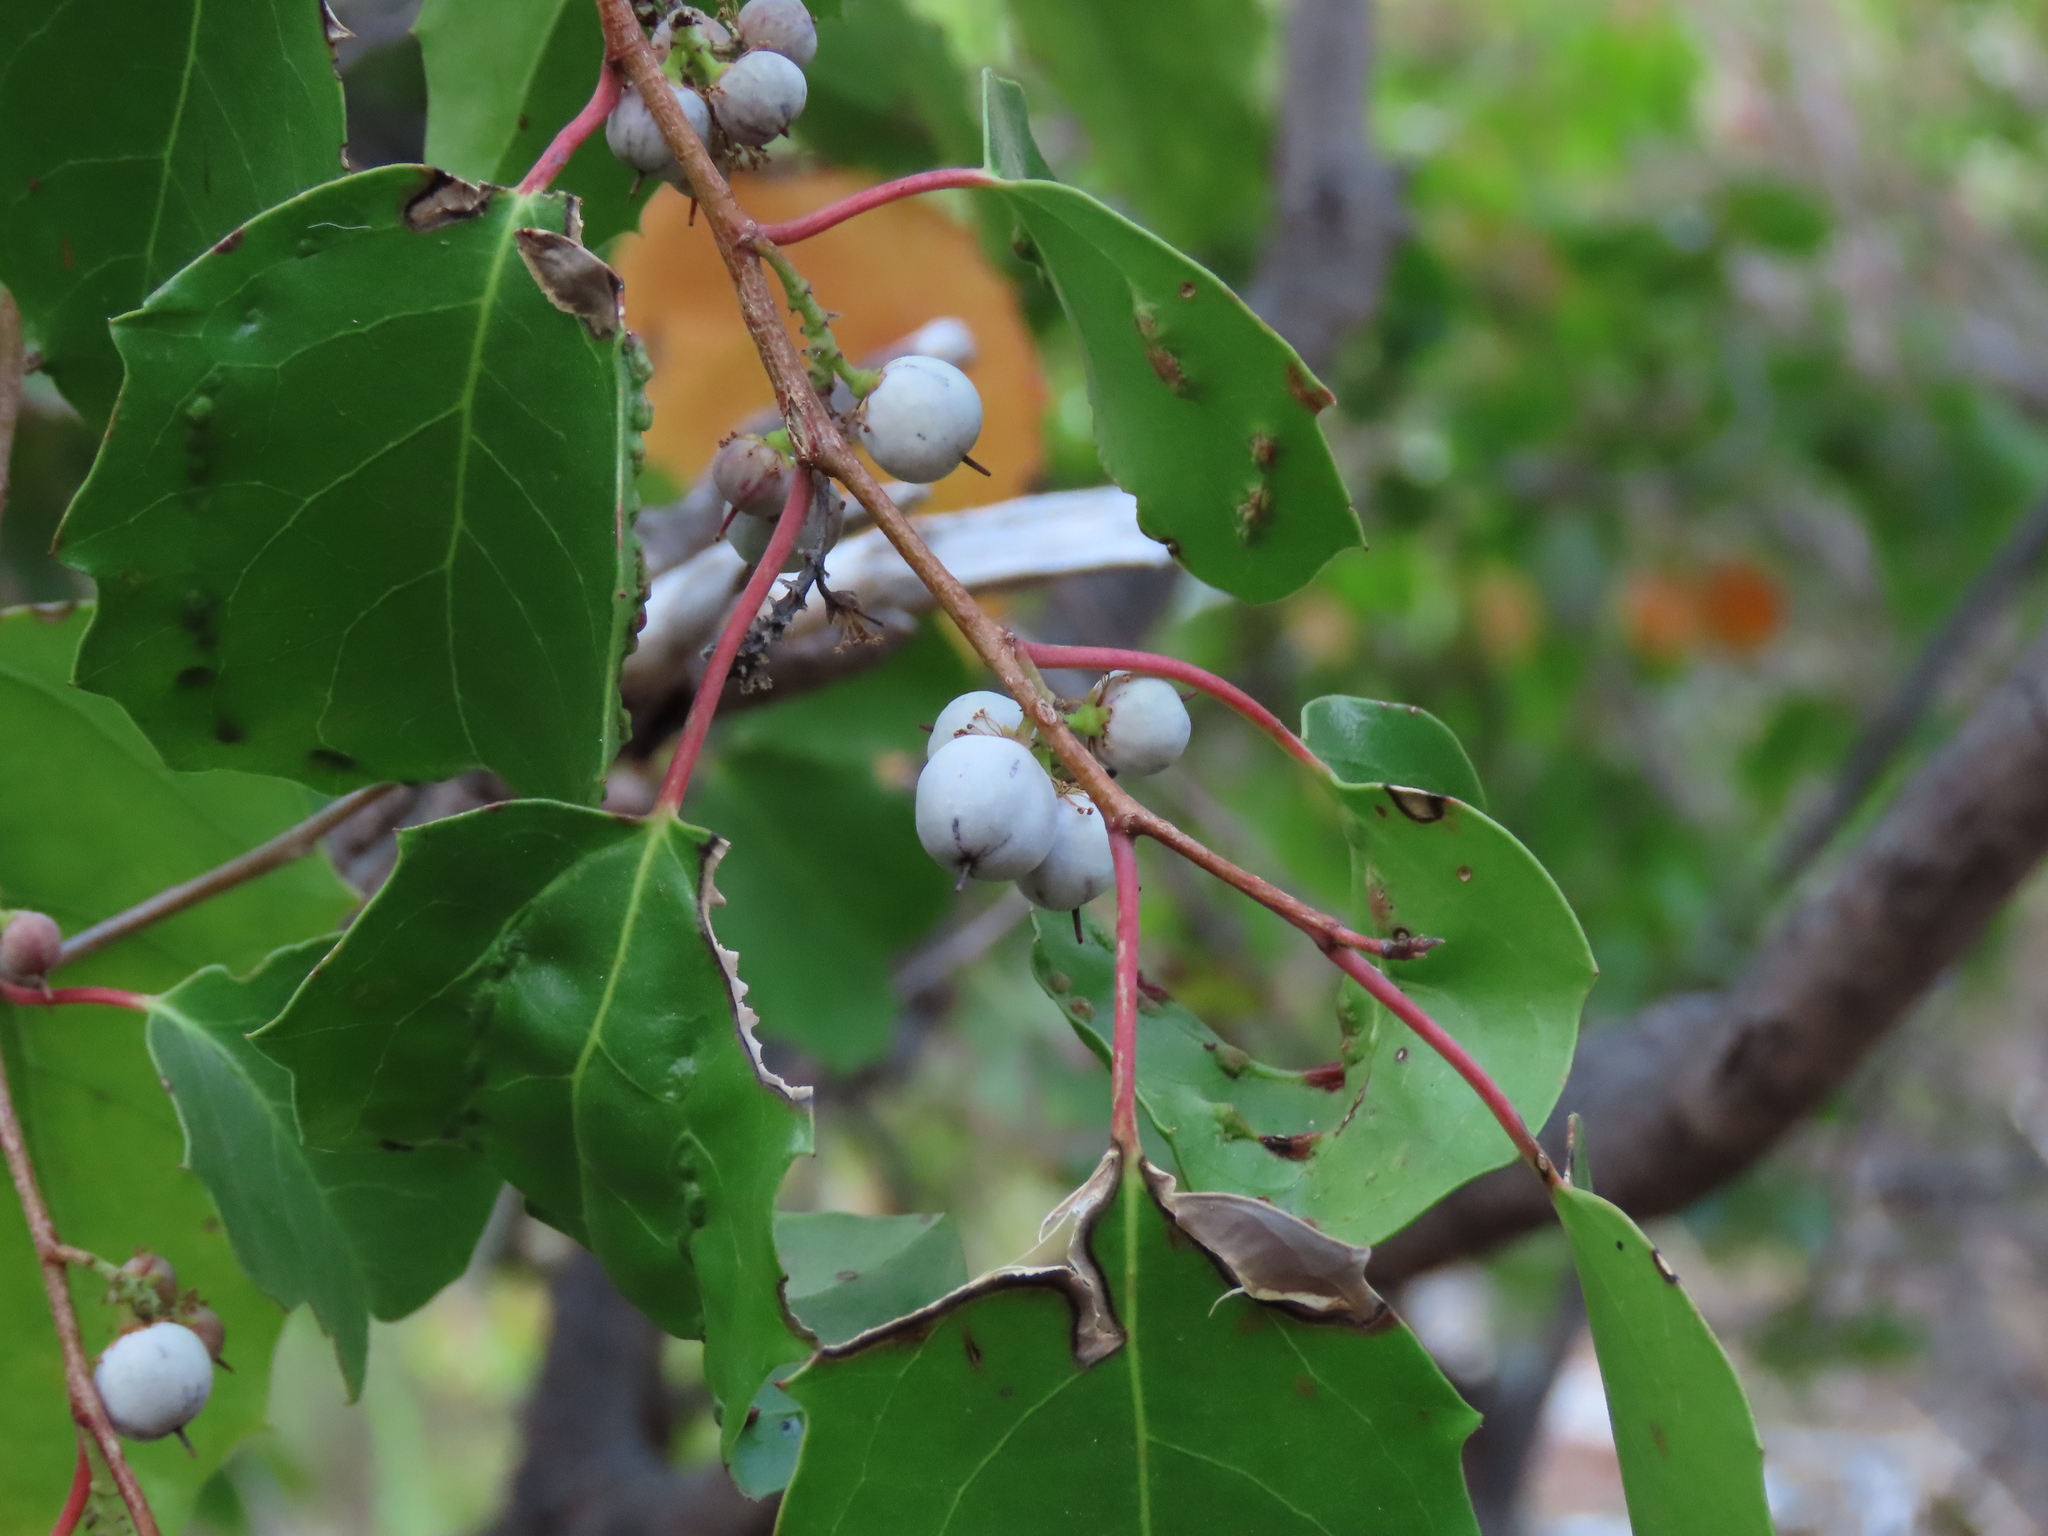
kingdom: Plantae
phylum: Tracheophyta
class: Magnoliopsida
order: Malpighiales
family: Salicaceae
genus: Azara
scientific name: Azara petiolaris
